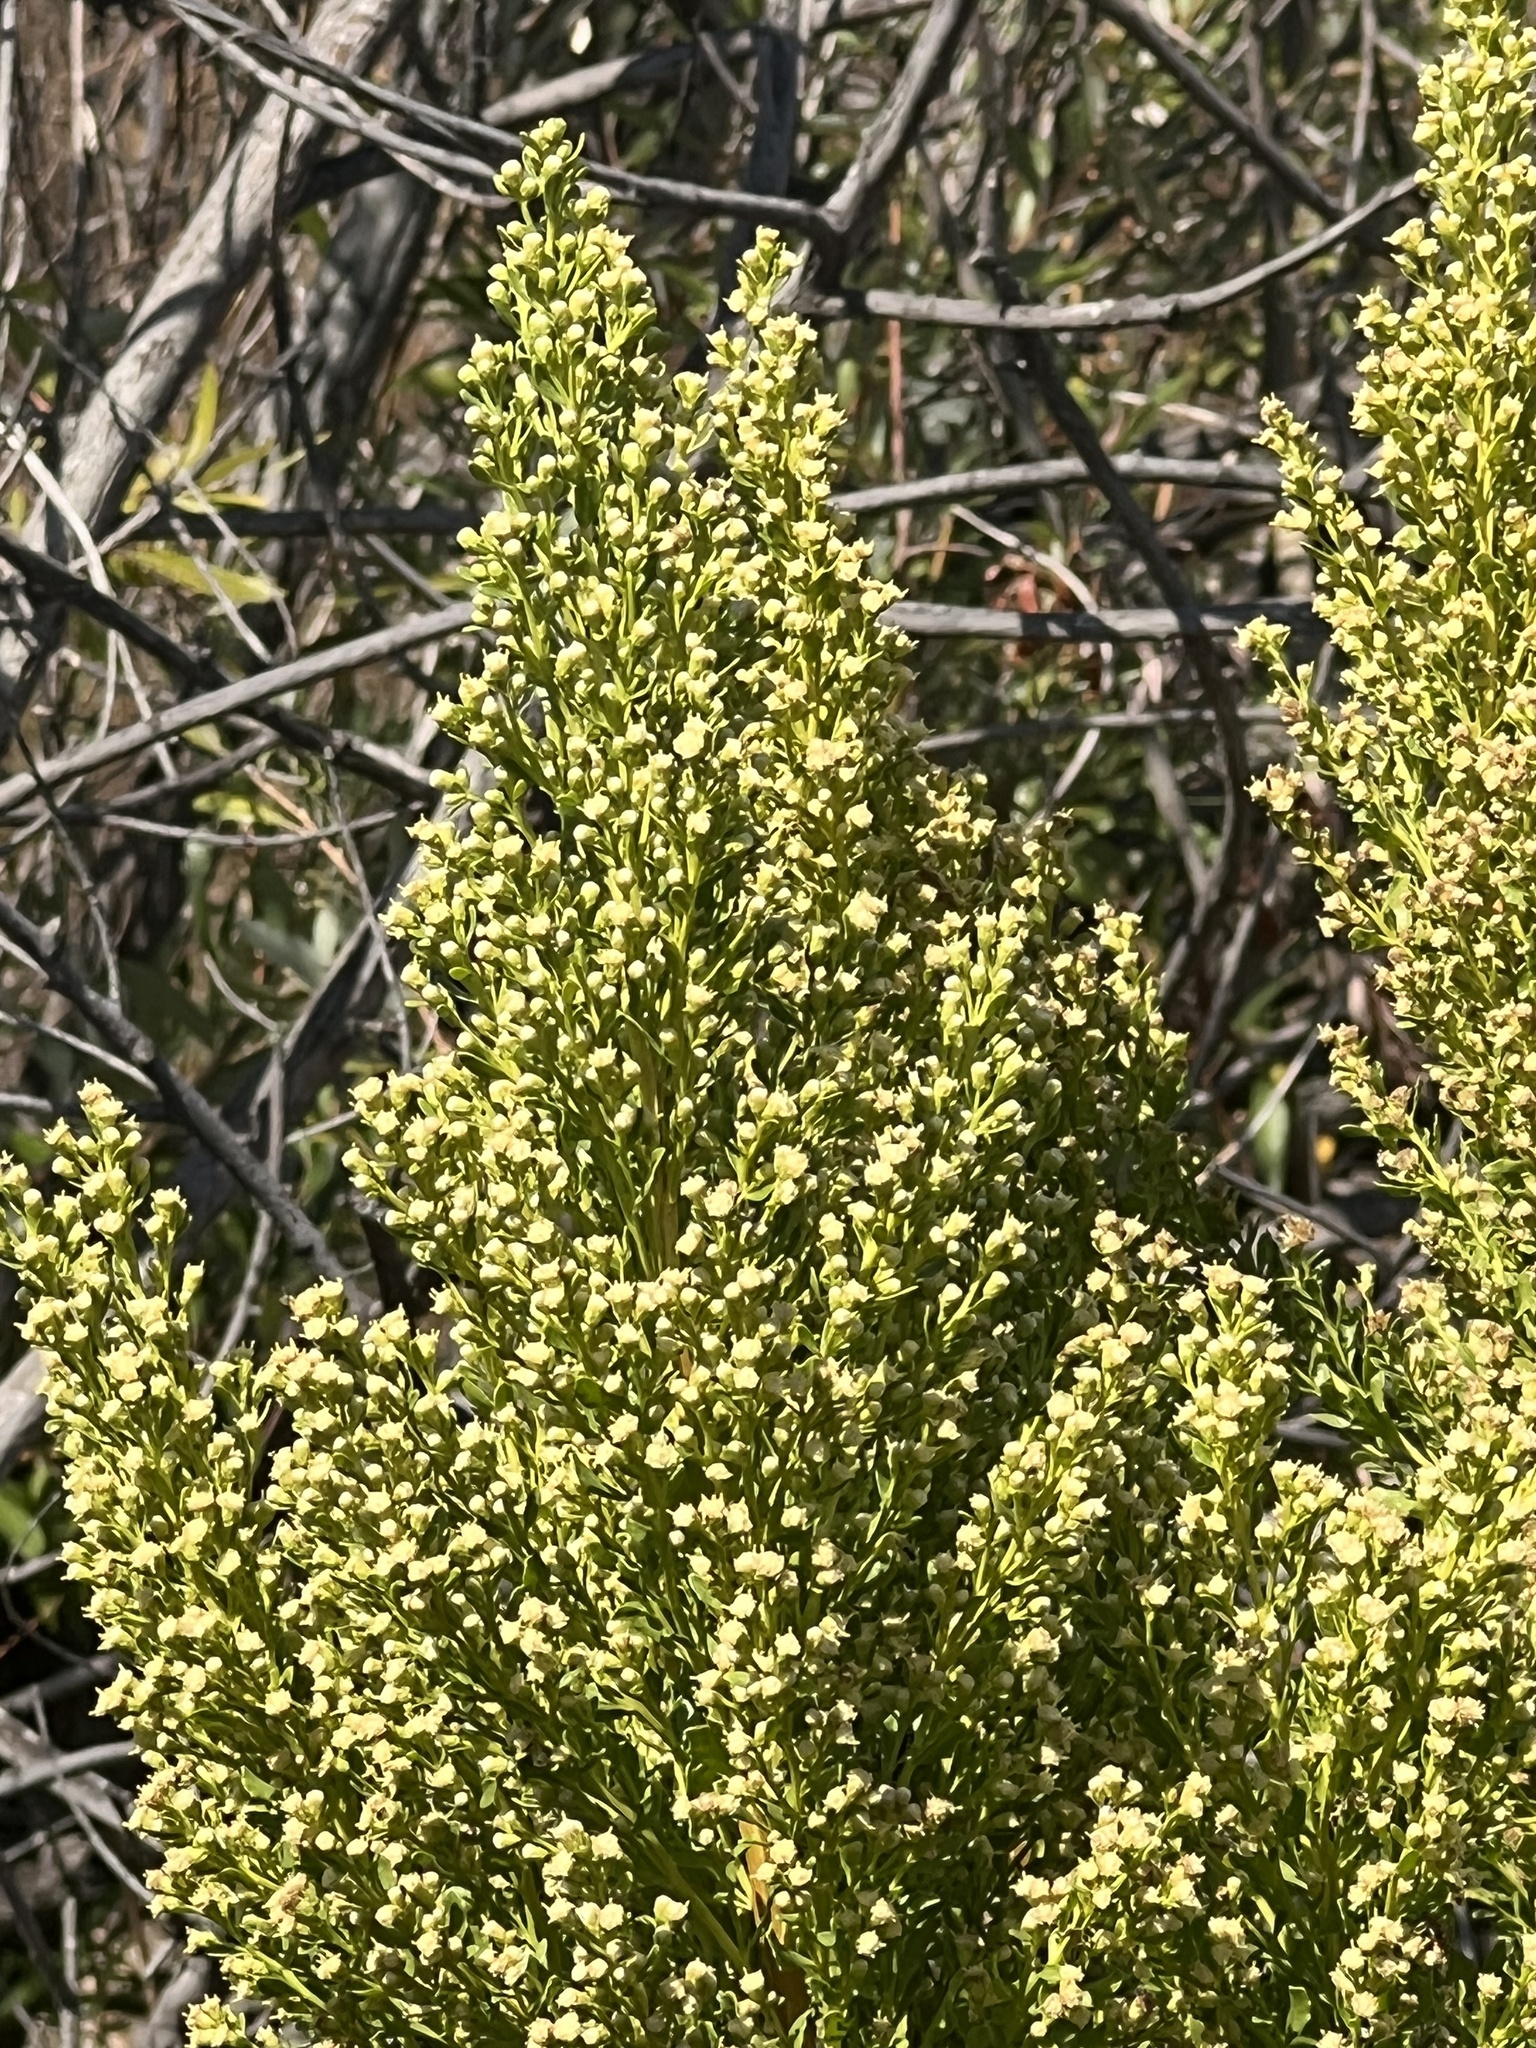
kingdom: Plantae
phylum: Tracheophyta
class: Magnoliopsida
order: Asterales
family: Asteraceae
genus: Baccharis
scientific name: Baccharis pilularis
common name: Coyotebrush
